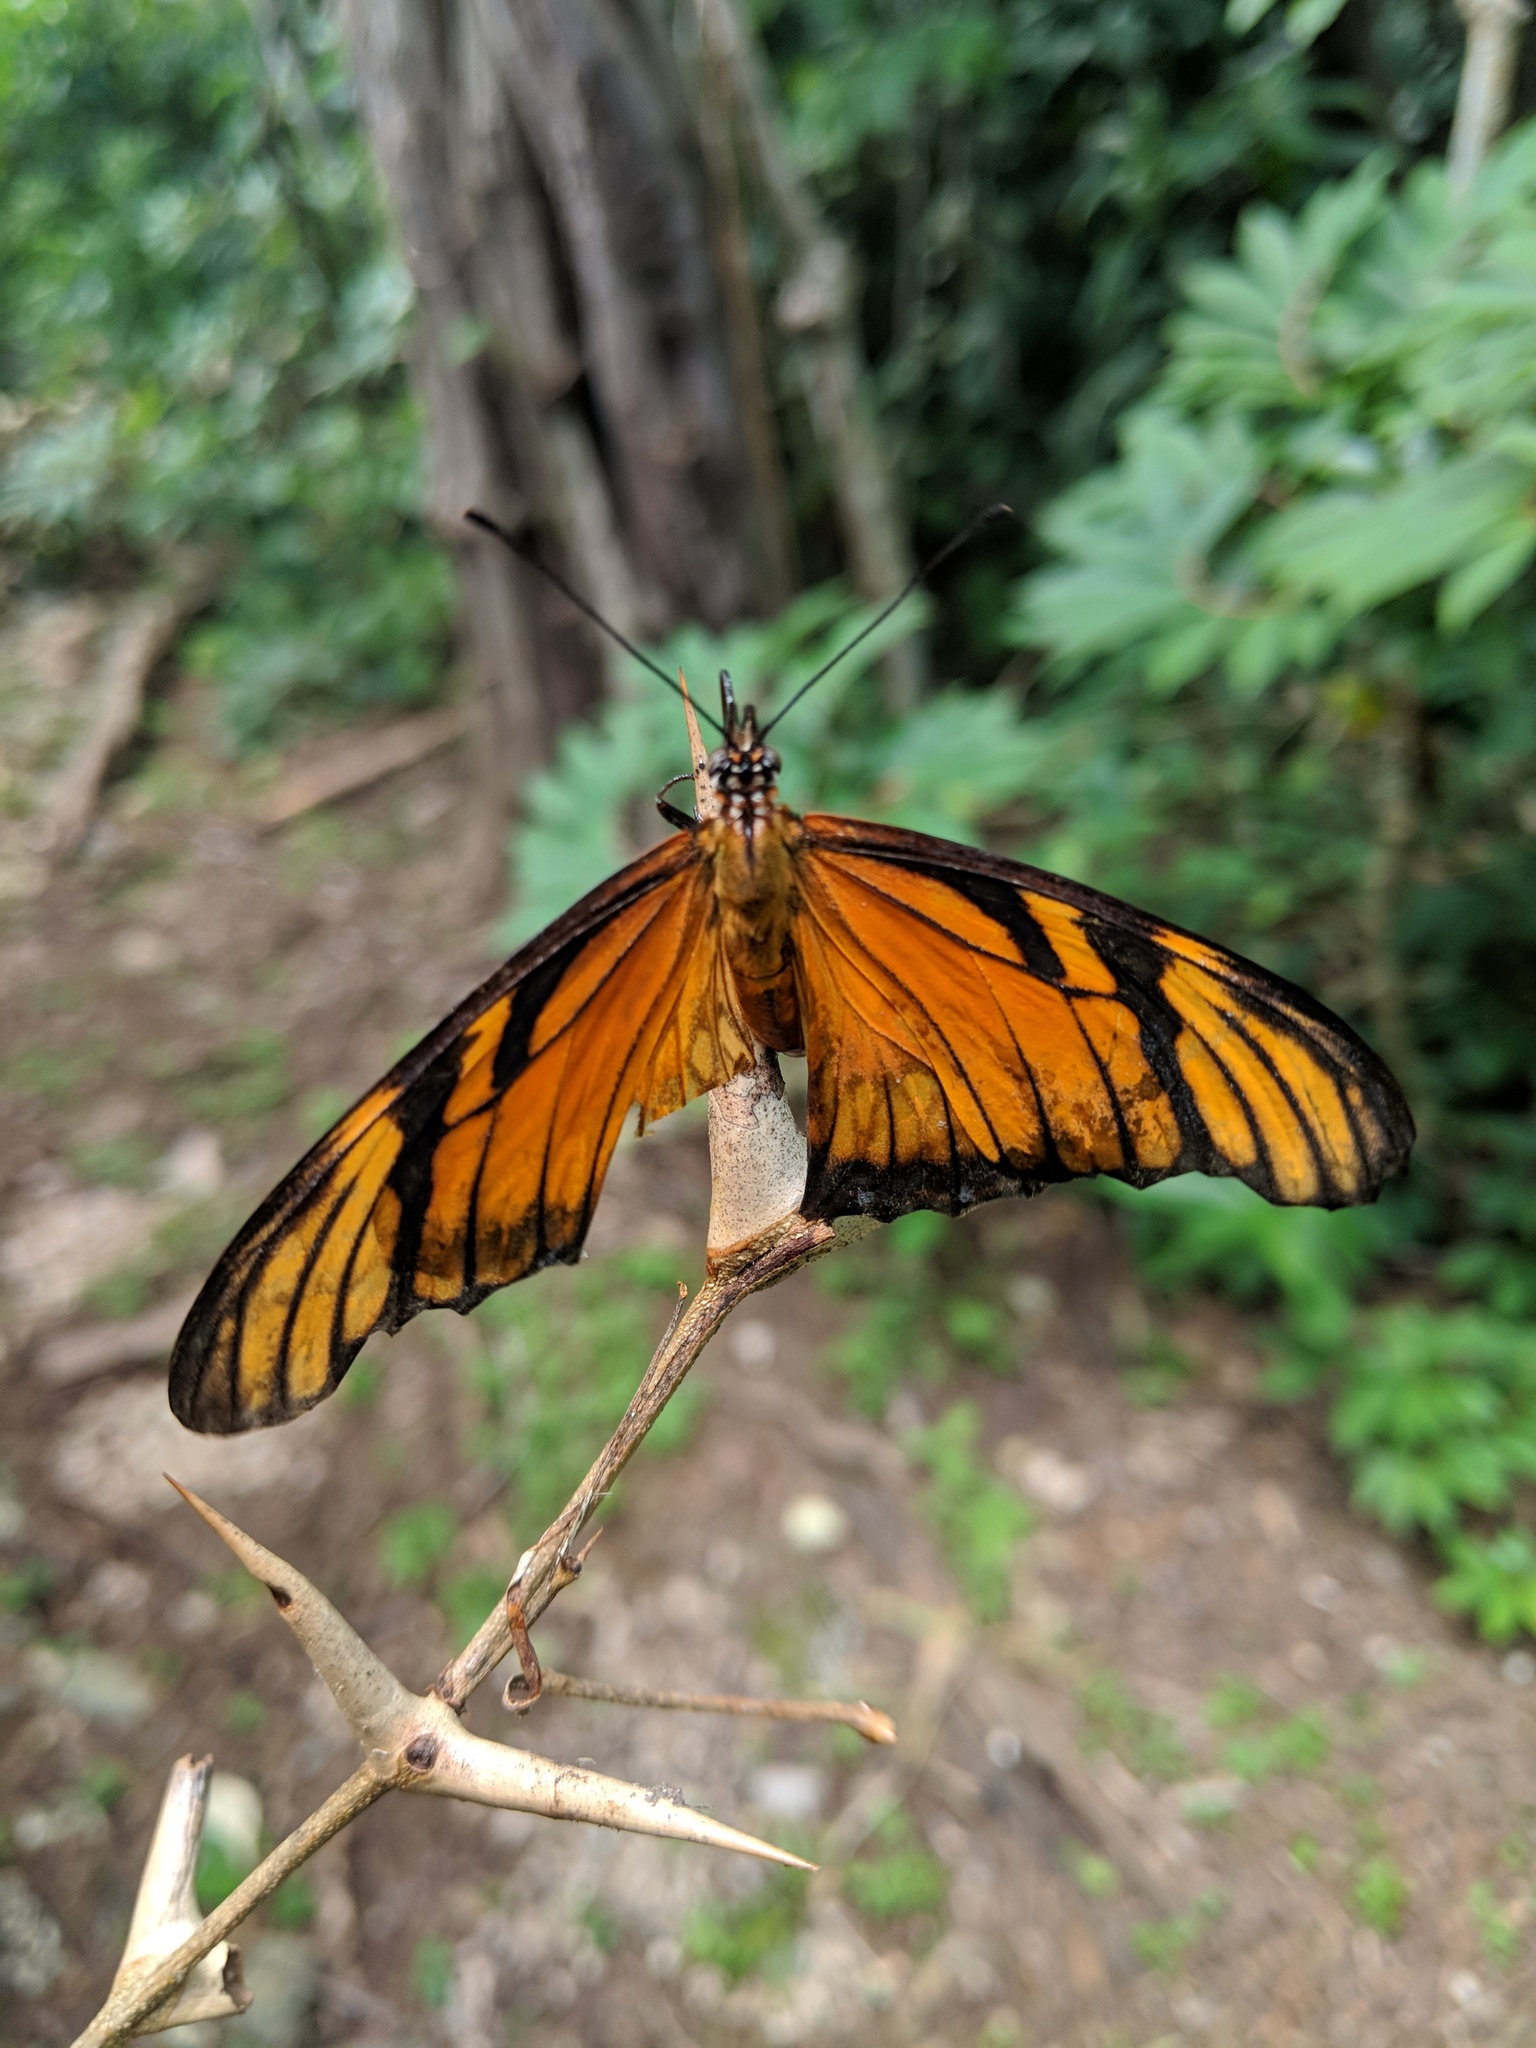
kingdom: Animalia
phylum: Arthropoda
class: Insecta
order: Lepidoptera
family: Nymphalidae
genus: Dione
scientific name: Dione juno
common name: Juno silverspot
